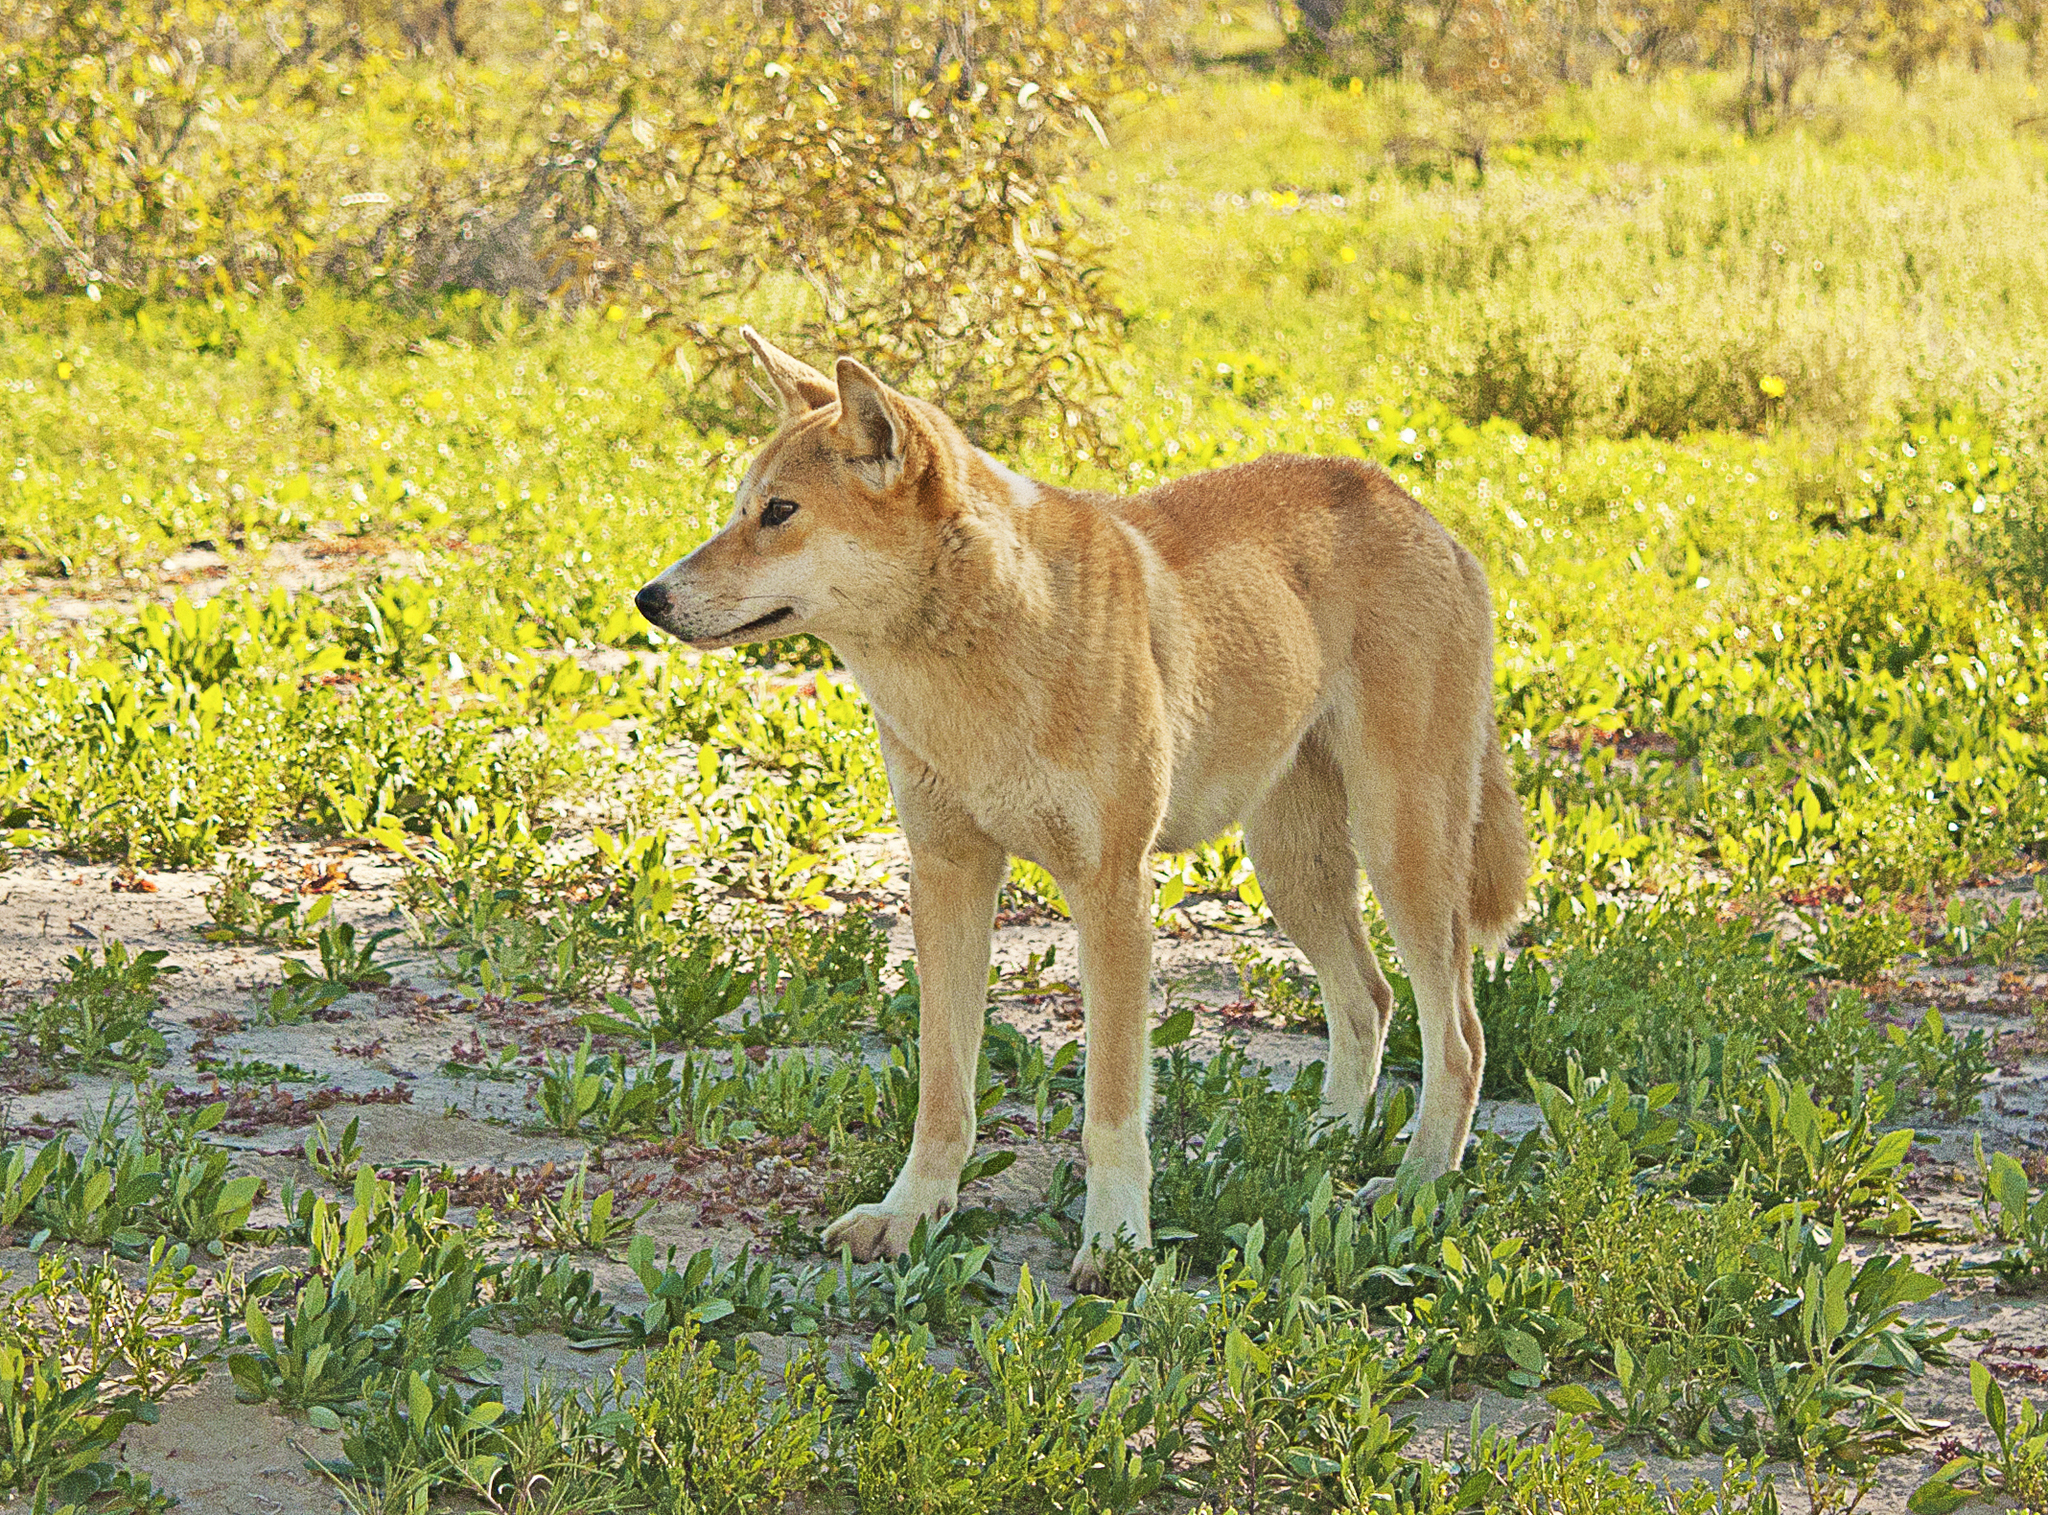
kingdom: Animalia
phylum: Chordata
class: Mammalia
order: Carnivora
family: Canidae
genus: Canis
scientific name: Canis lupus
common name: Gray wolf
